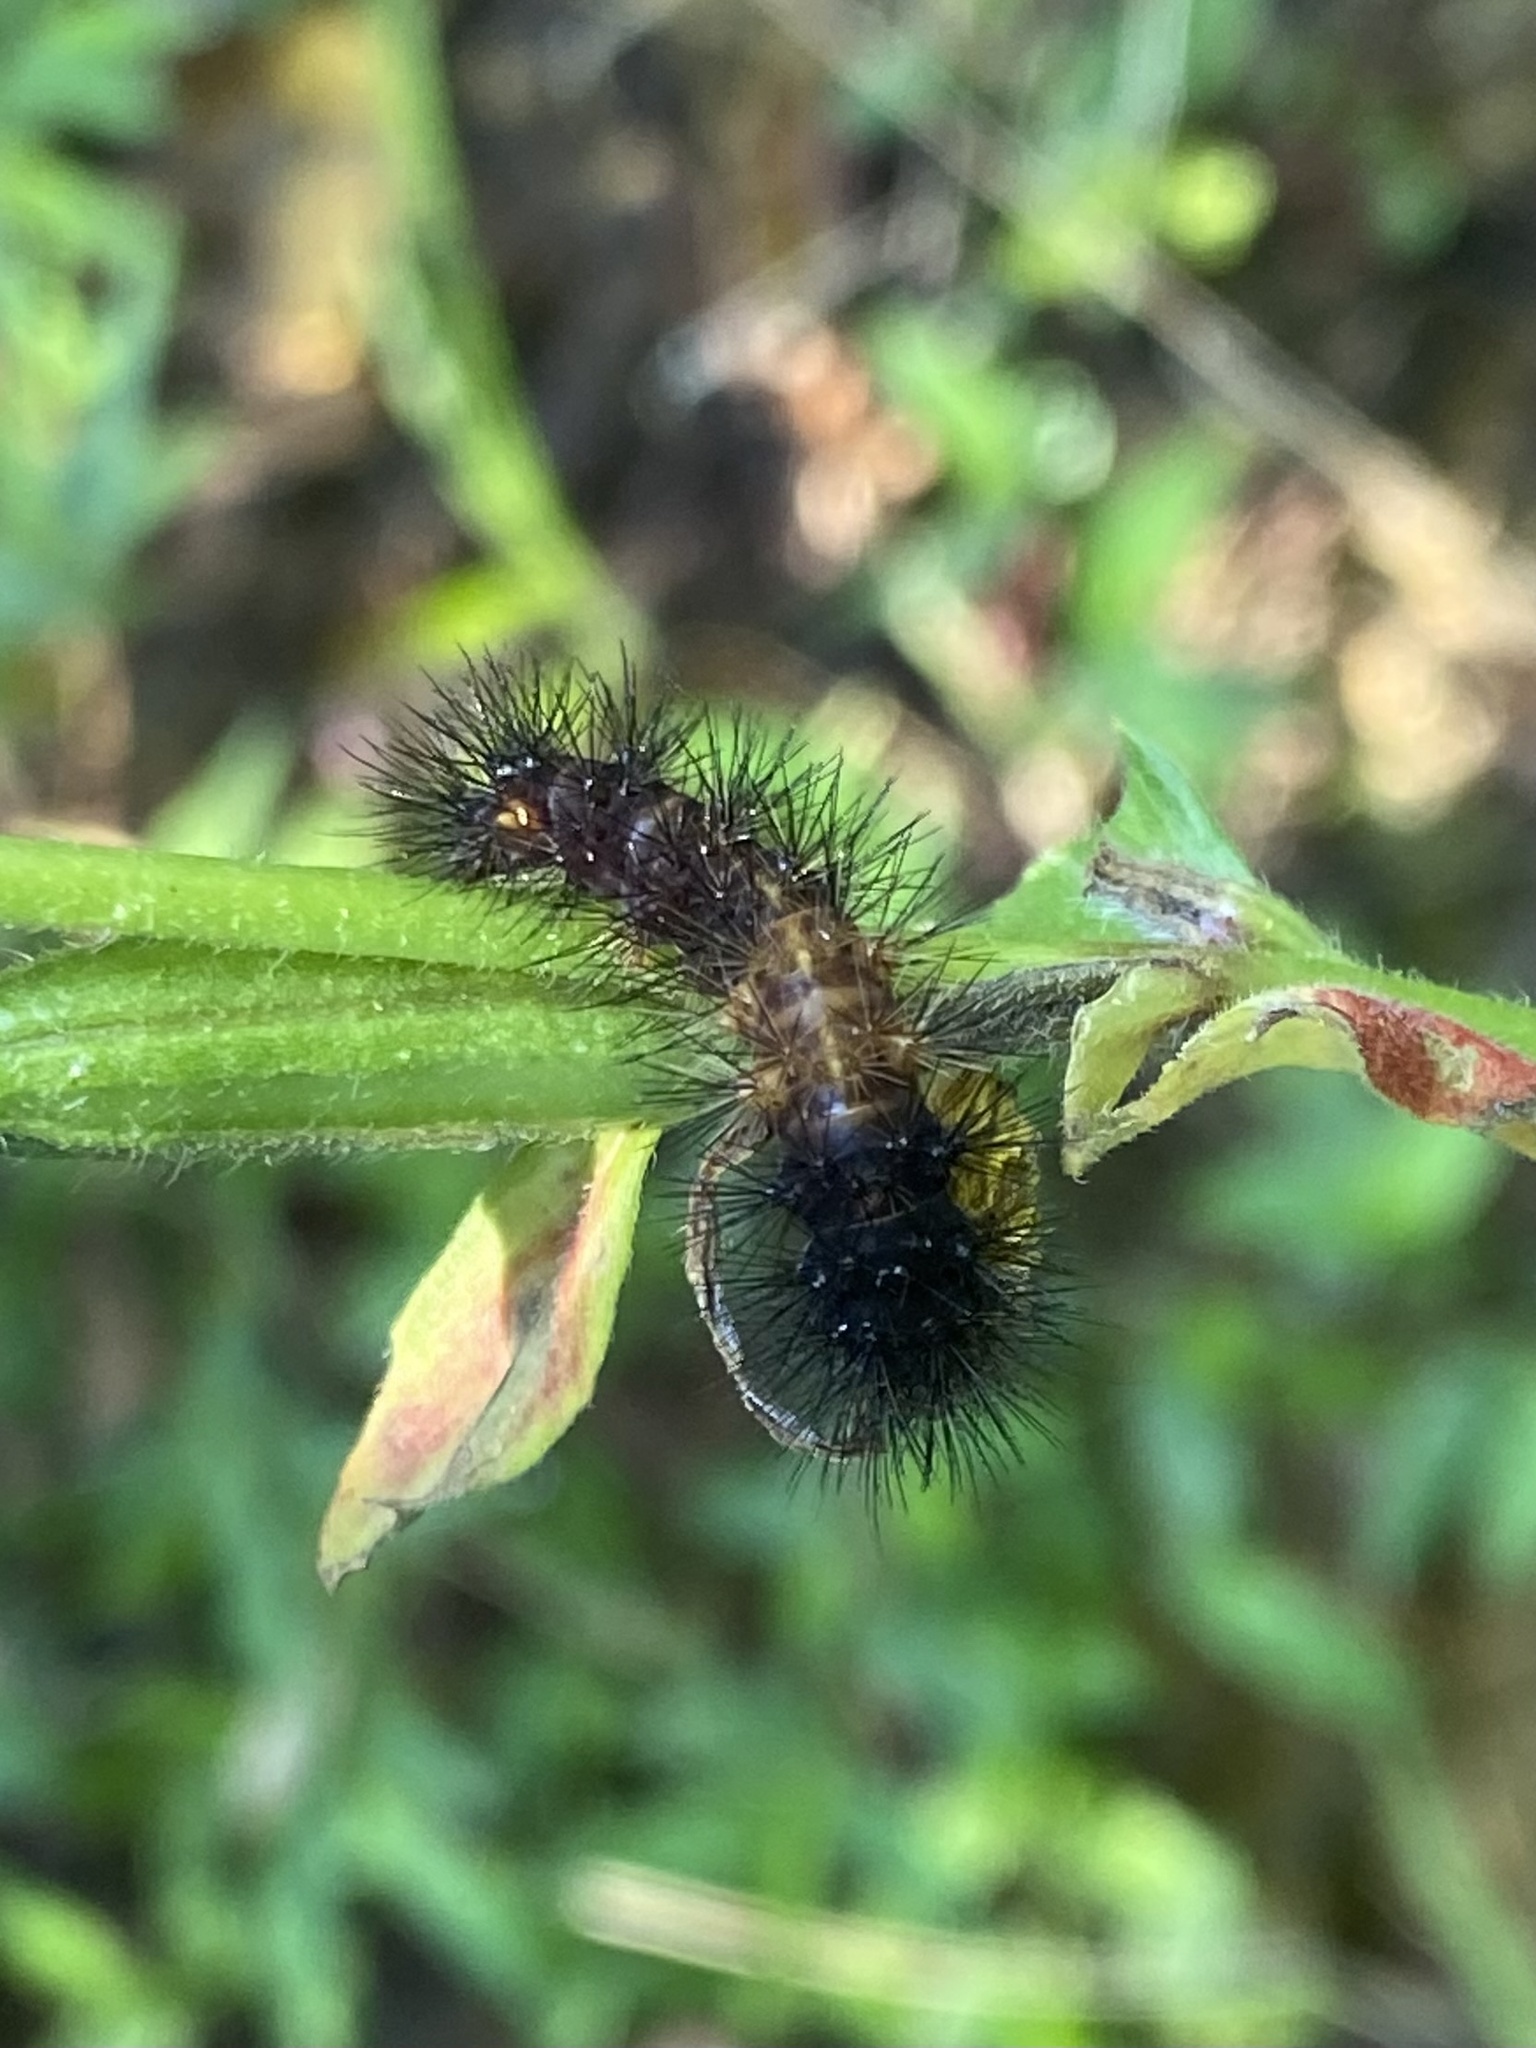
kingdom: Animalia
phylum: Arthropoda
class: Insecta
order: Lepidoptera
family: Erebidae
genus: Hypercompe
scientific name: Hypercompe scribonia
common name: Giant leopard moth
